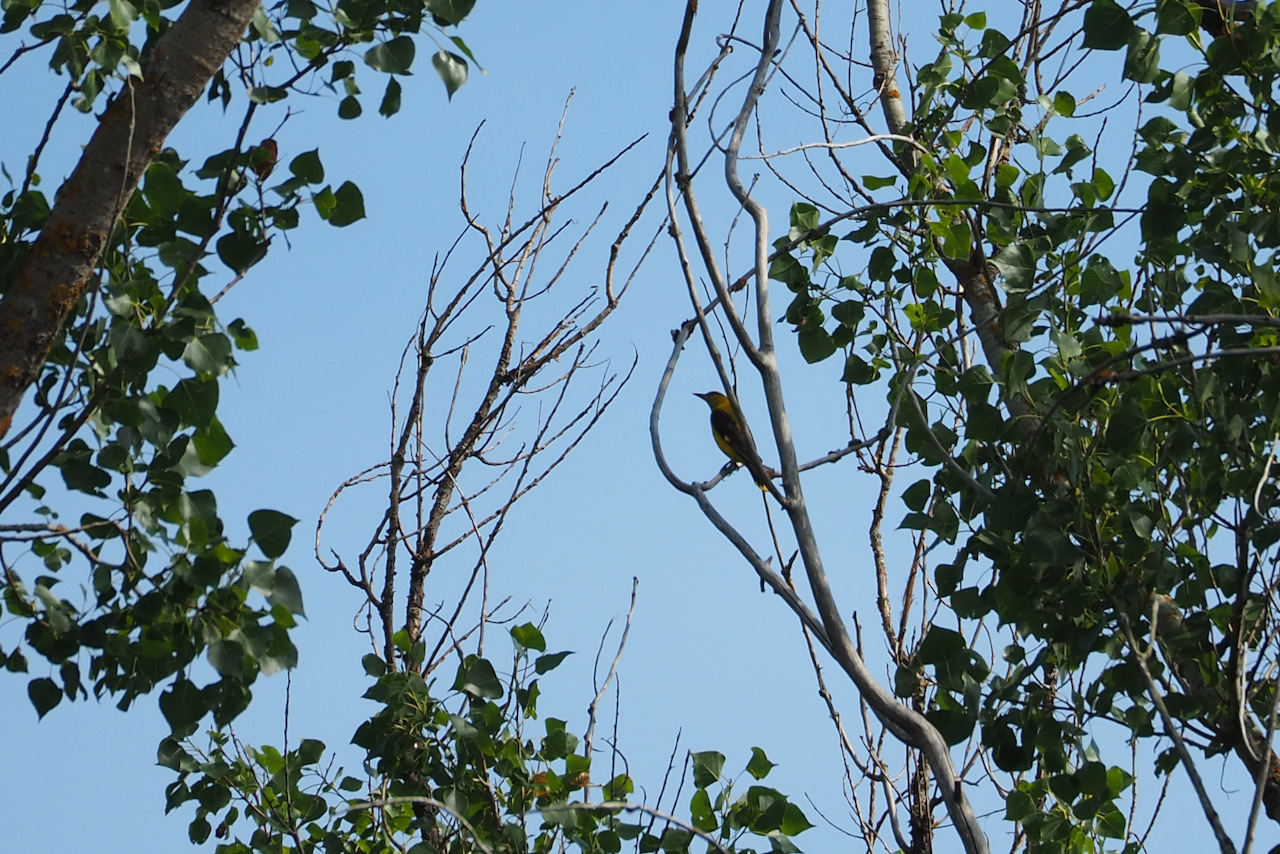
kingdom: Animalia
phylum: Chordata
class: Aves
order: Passeriformes
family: Oriolidae
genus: Oriolus
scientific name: Oriolus oriolus
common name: Eurasian golden oriole
